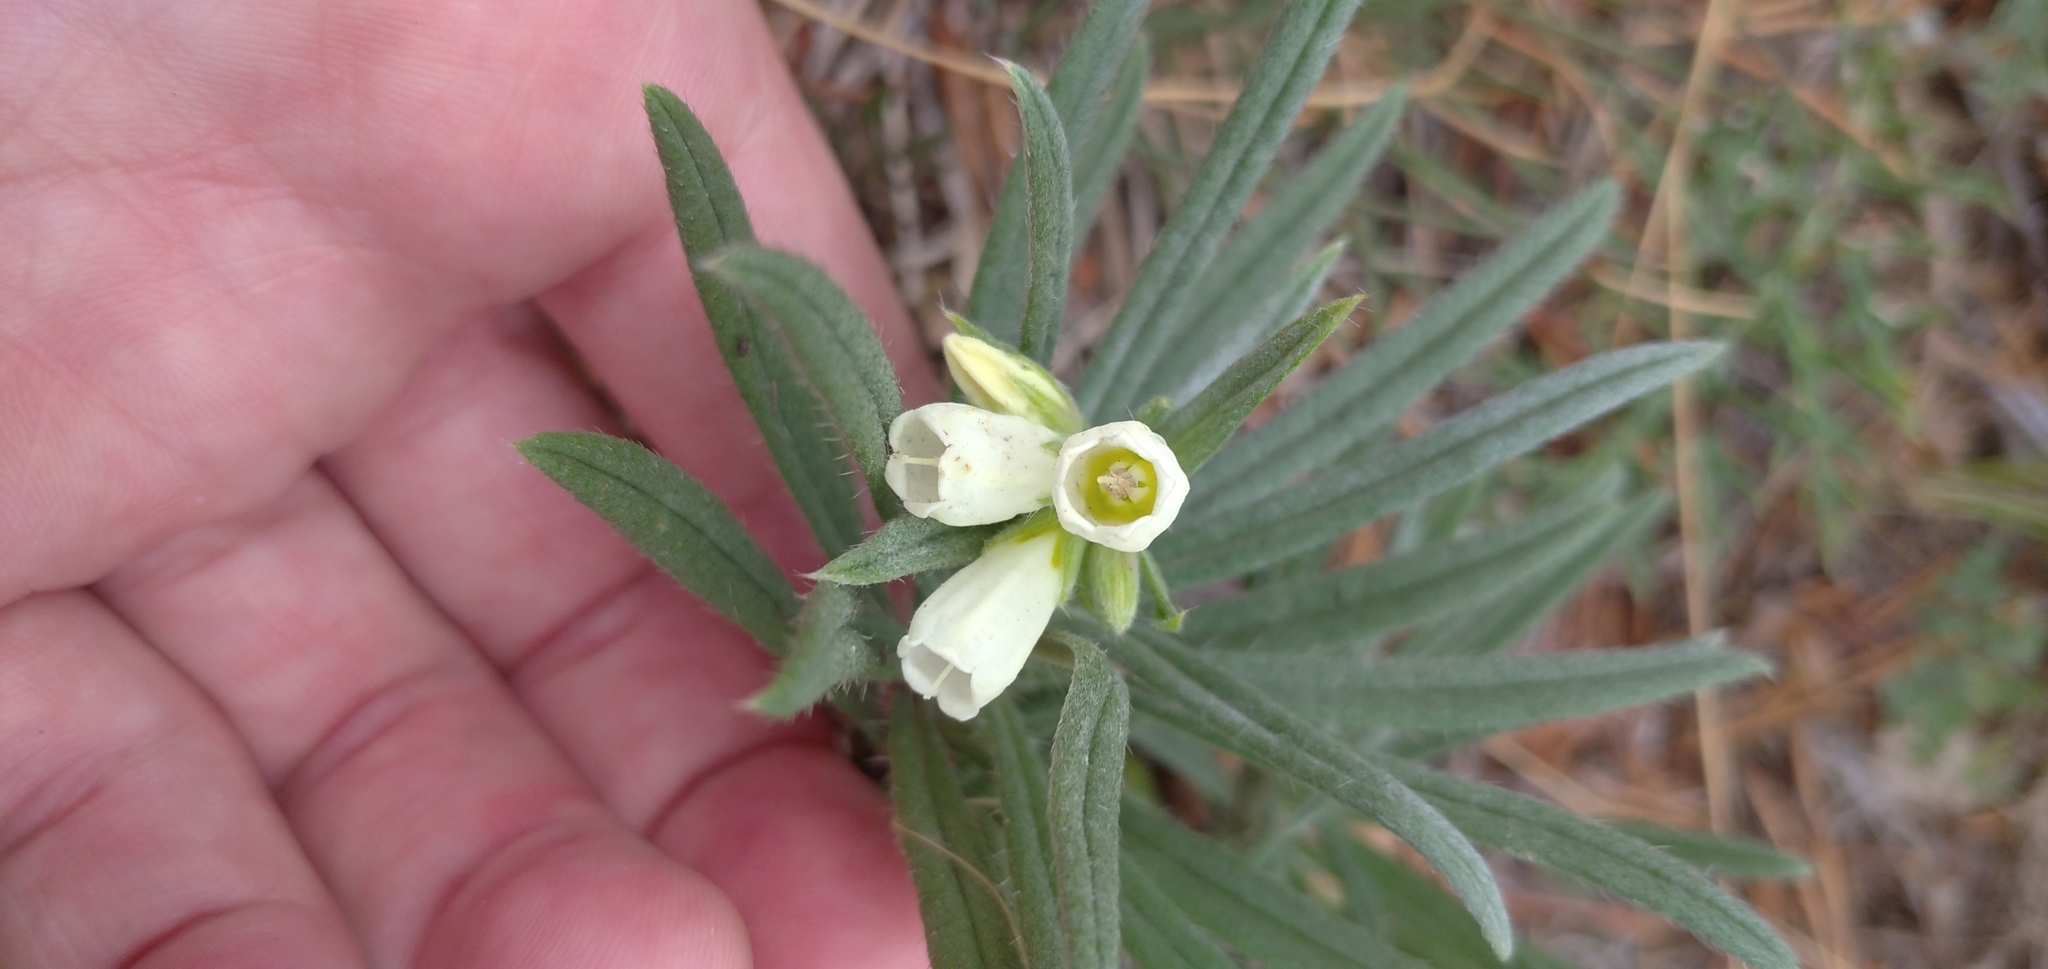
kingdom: Plantae
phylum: Tracheophyta
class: Magnoliopsida
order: Boraginales
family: Boraginaceae
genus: Onosma
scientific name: Onosma simplicissima
